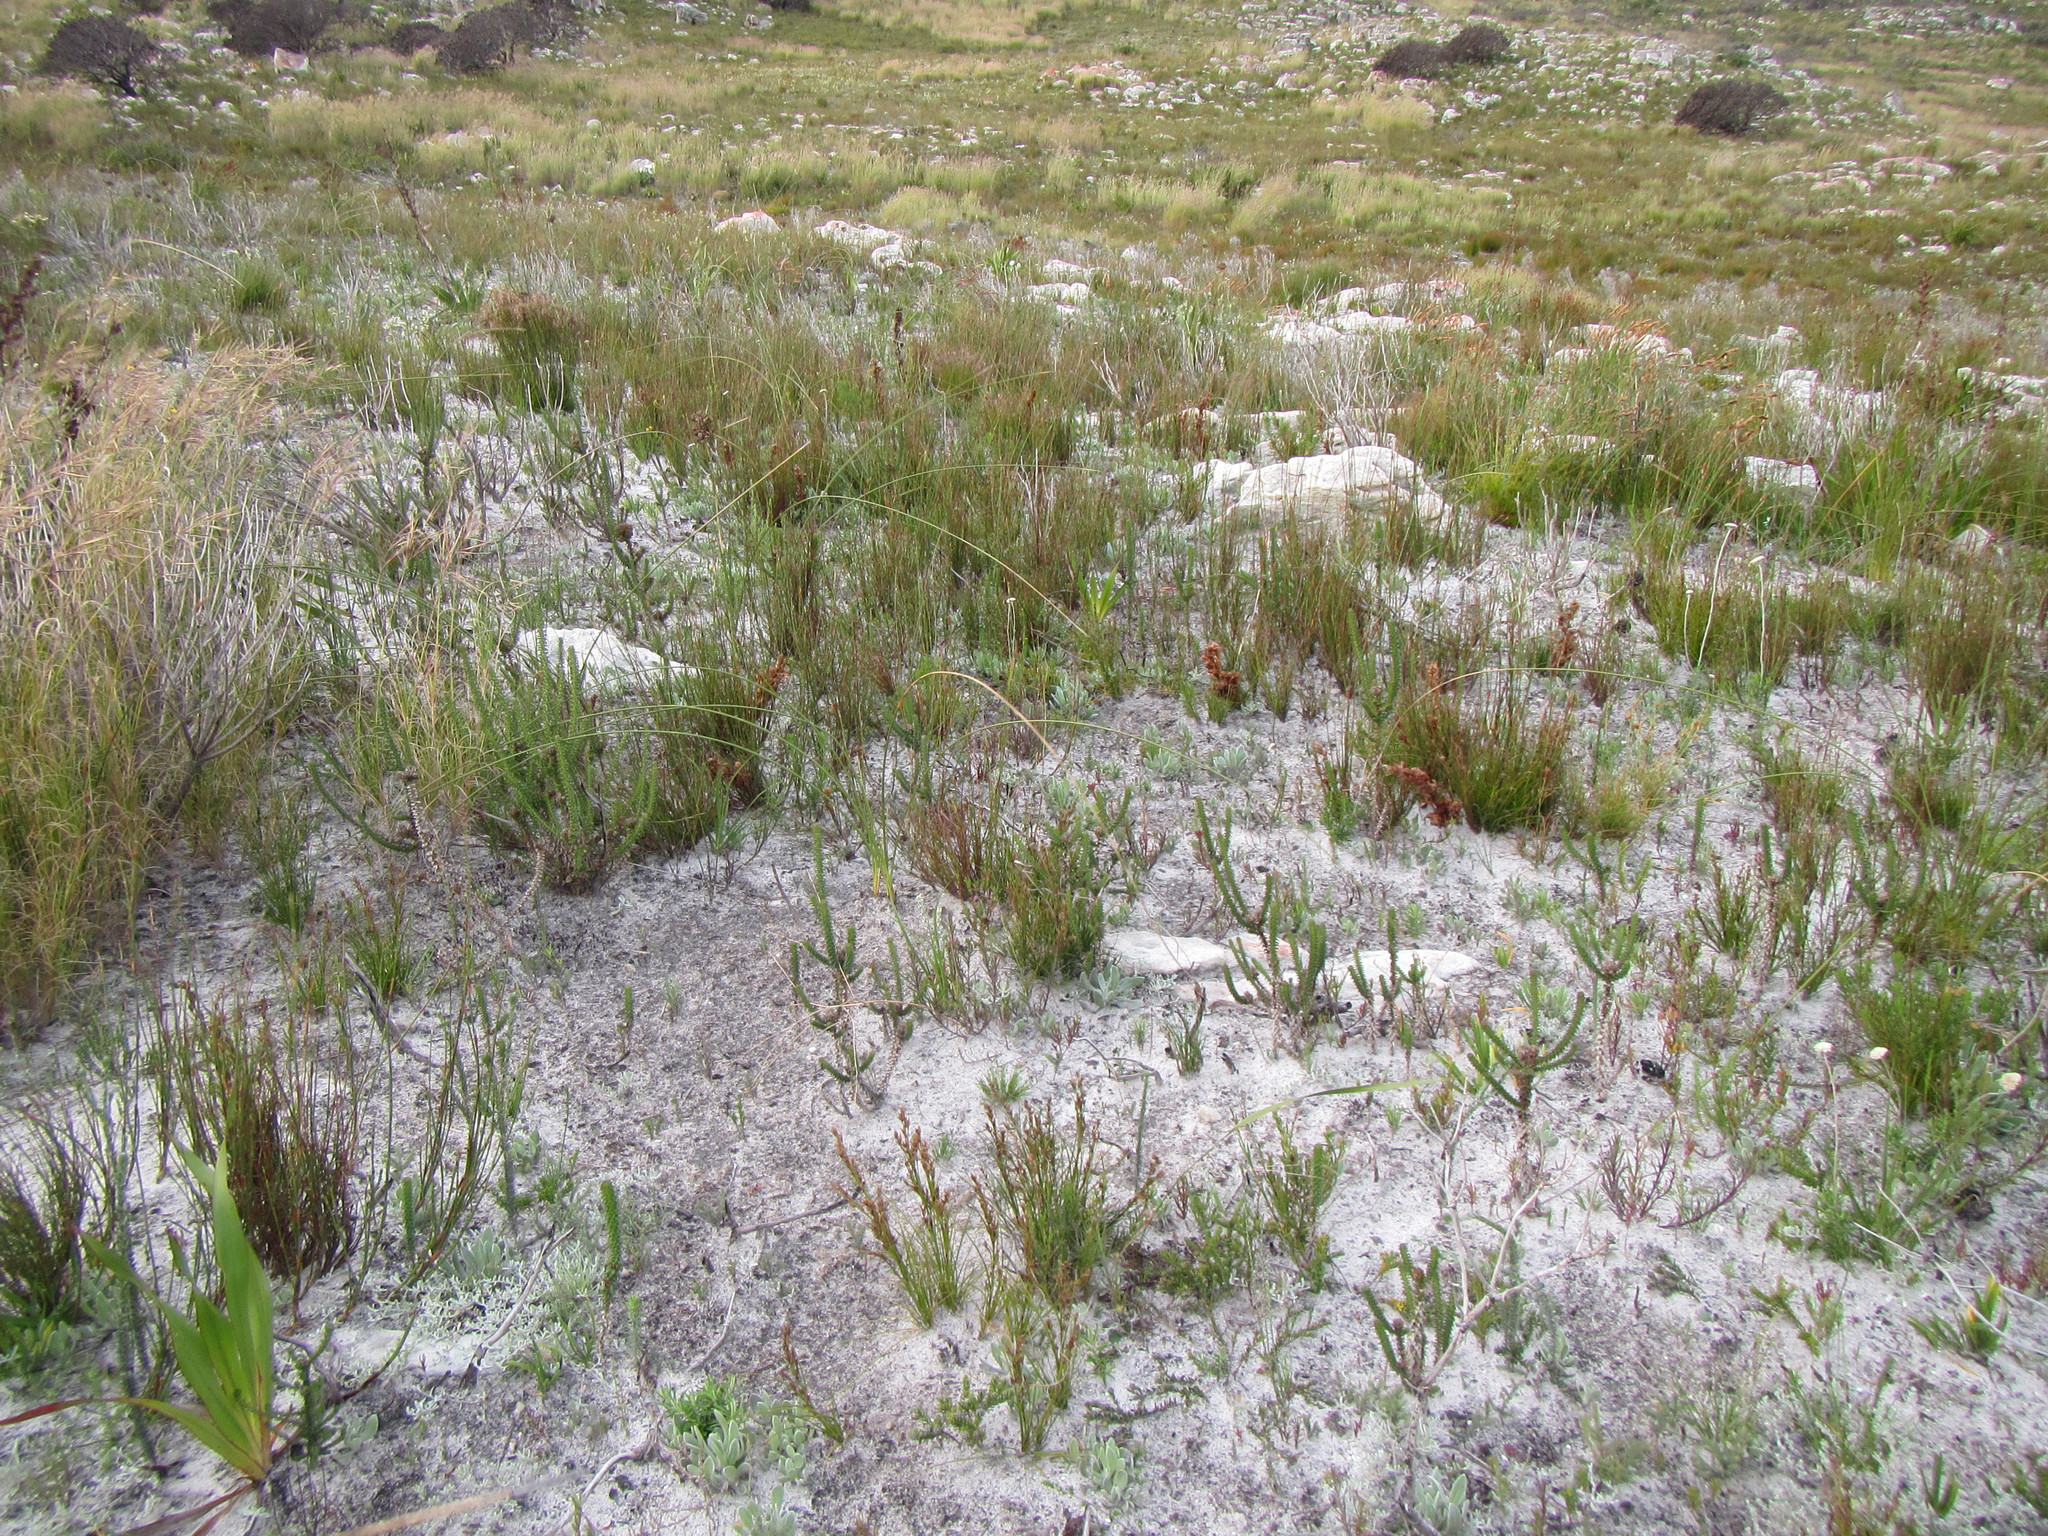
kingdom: Plantae
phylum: Tracheophyta
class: Liliopsida
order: Poales
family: Cyperaceae
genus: Tetraria
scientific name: Tetraria microstachys
